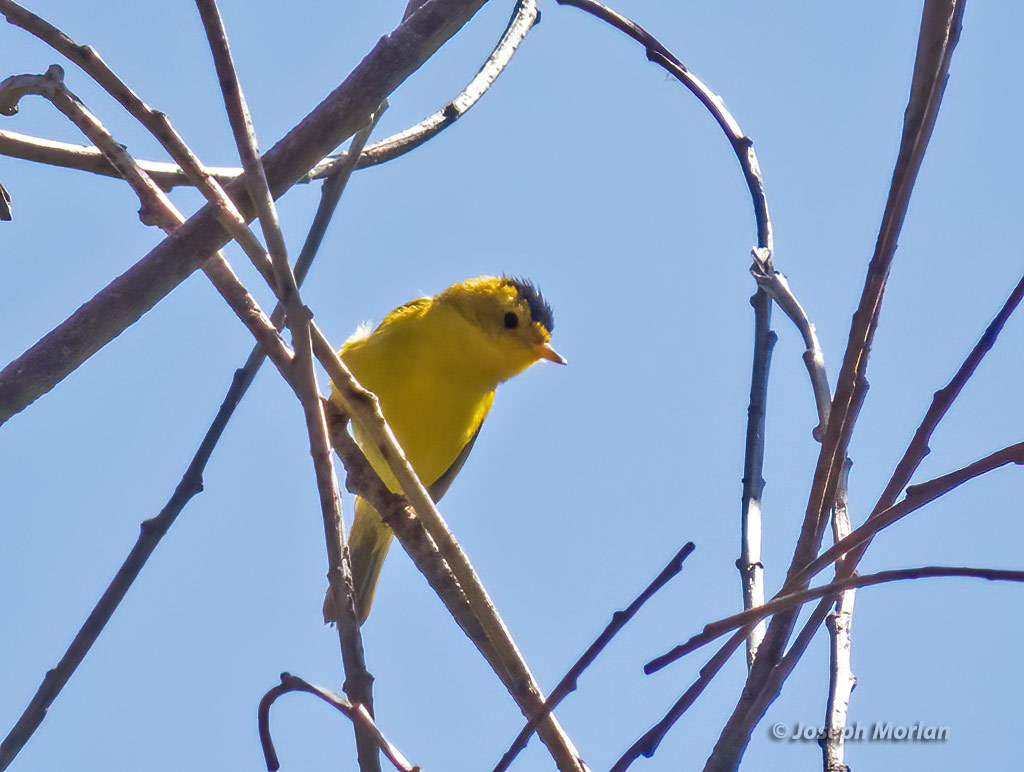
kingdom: Animalia
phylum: Chordata
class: Aves
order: Passeriformes
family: Parulidae
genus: Cardellina
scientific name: Cardellina pusilla
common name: Wilson's warbler
